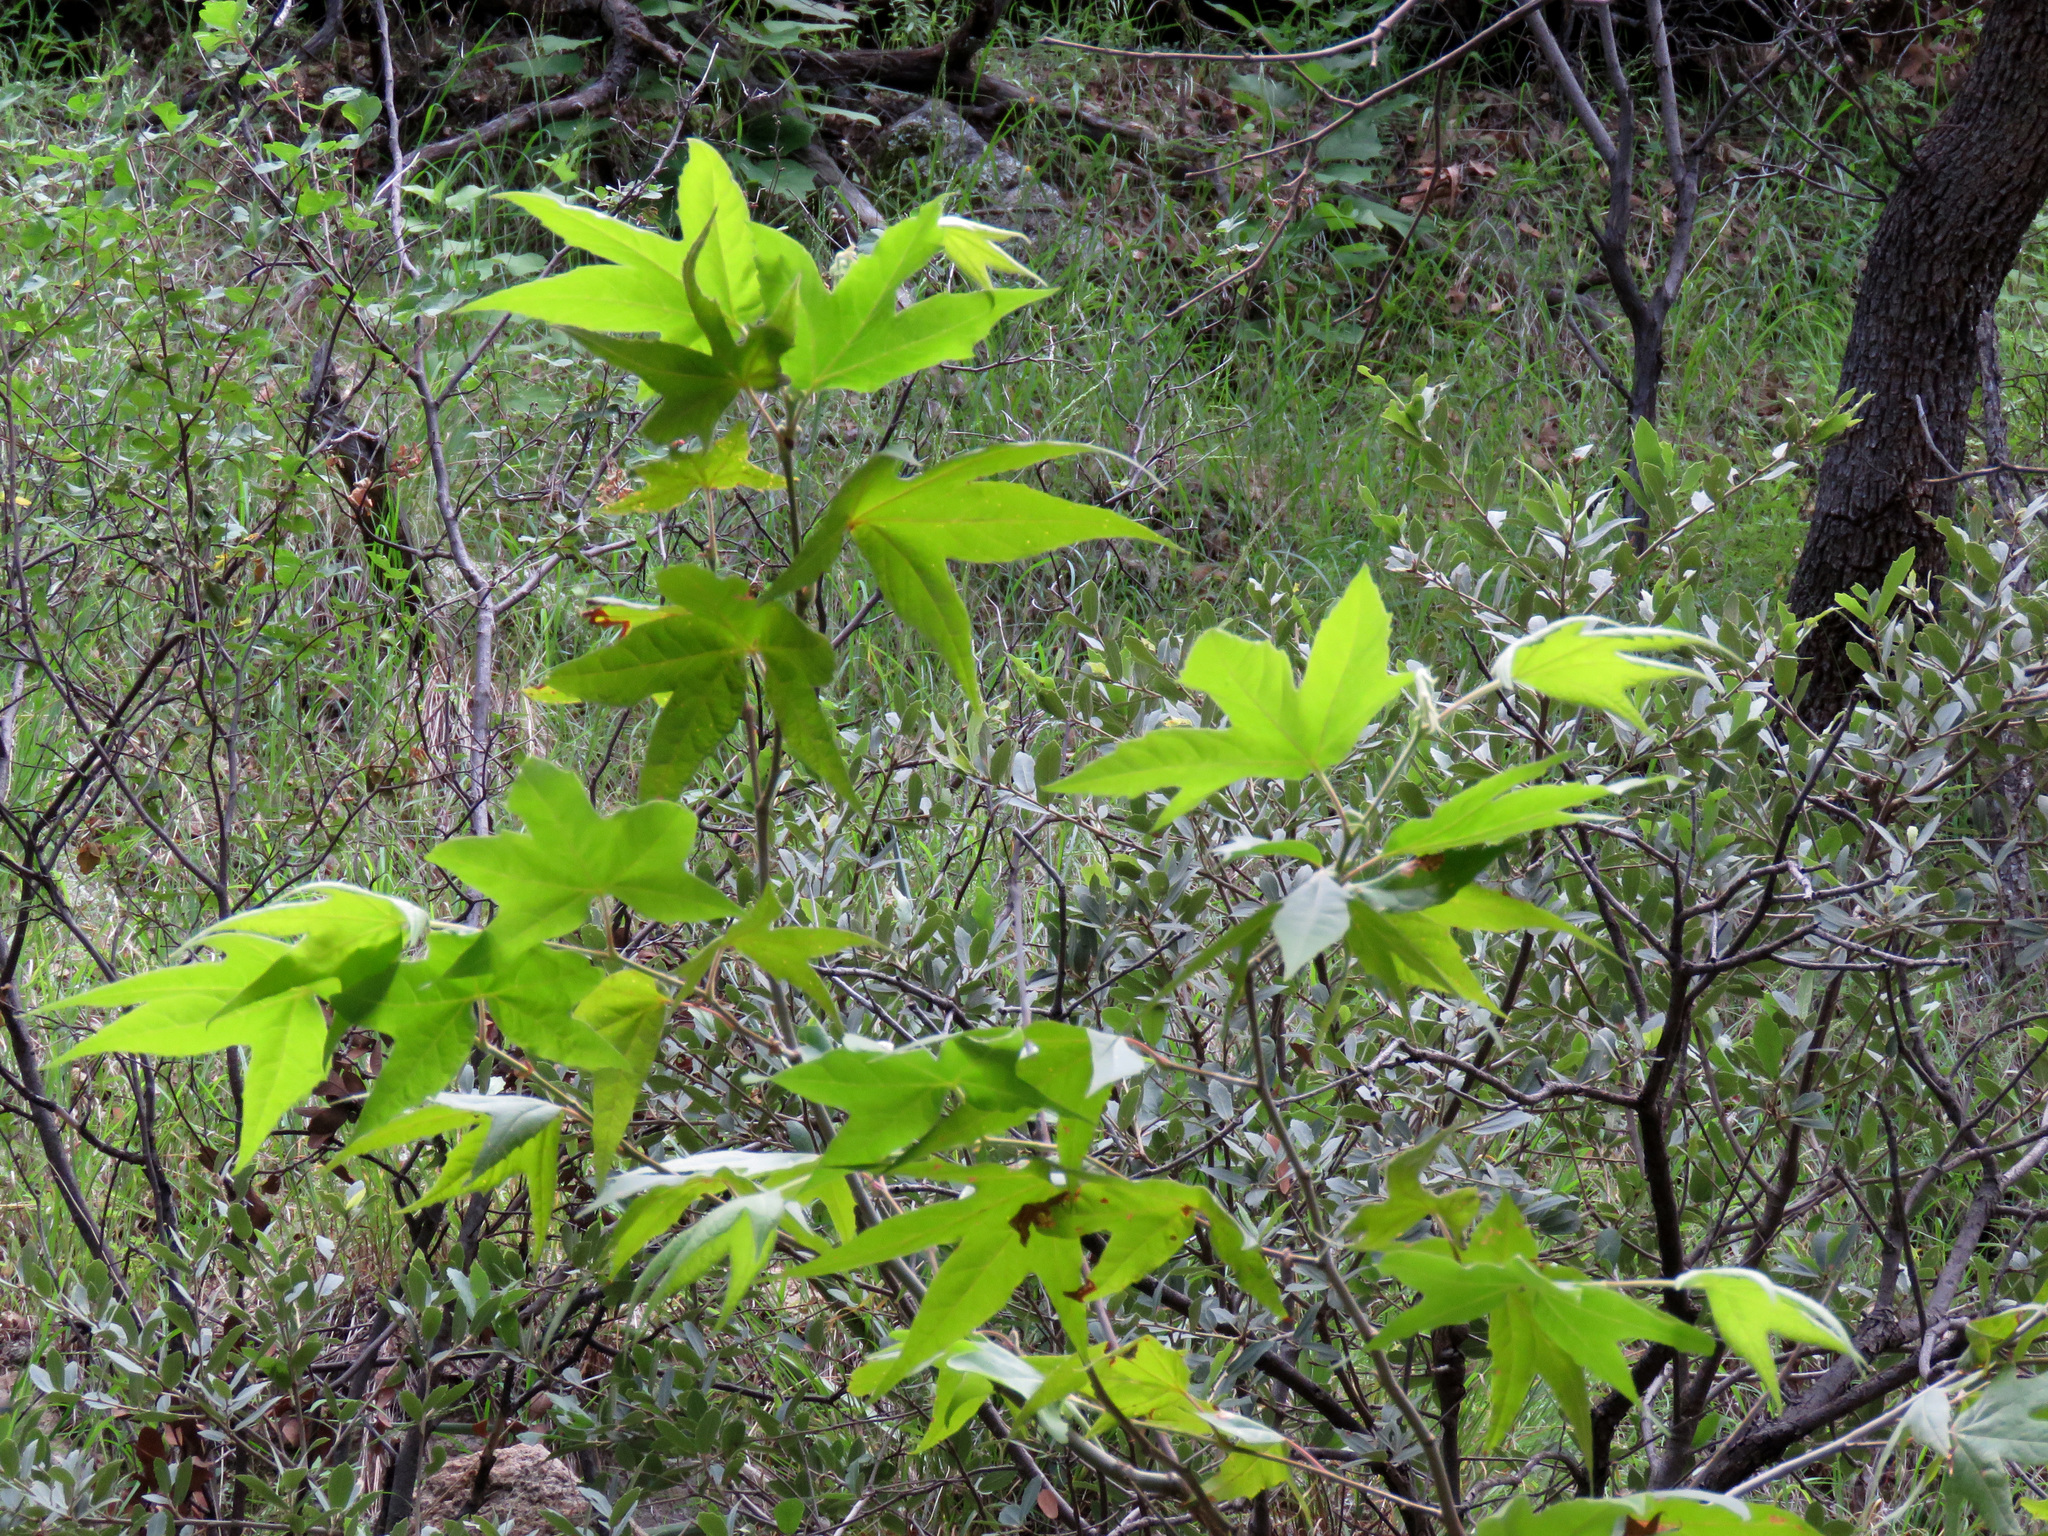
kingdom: Plantae
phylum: Tracheophyta
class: Magnoliopsida
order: Proteales
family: Platanaceae
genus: Platanus
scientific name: Platanus wrightii
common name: Arizona sycamore
